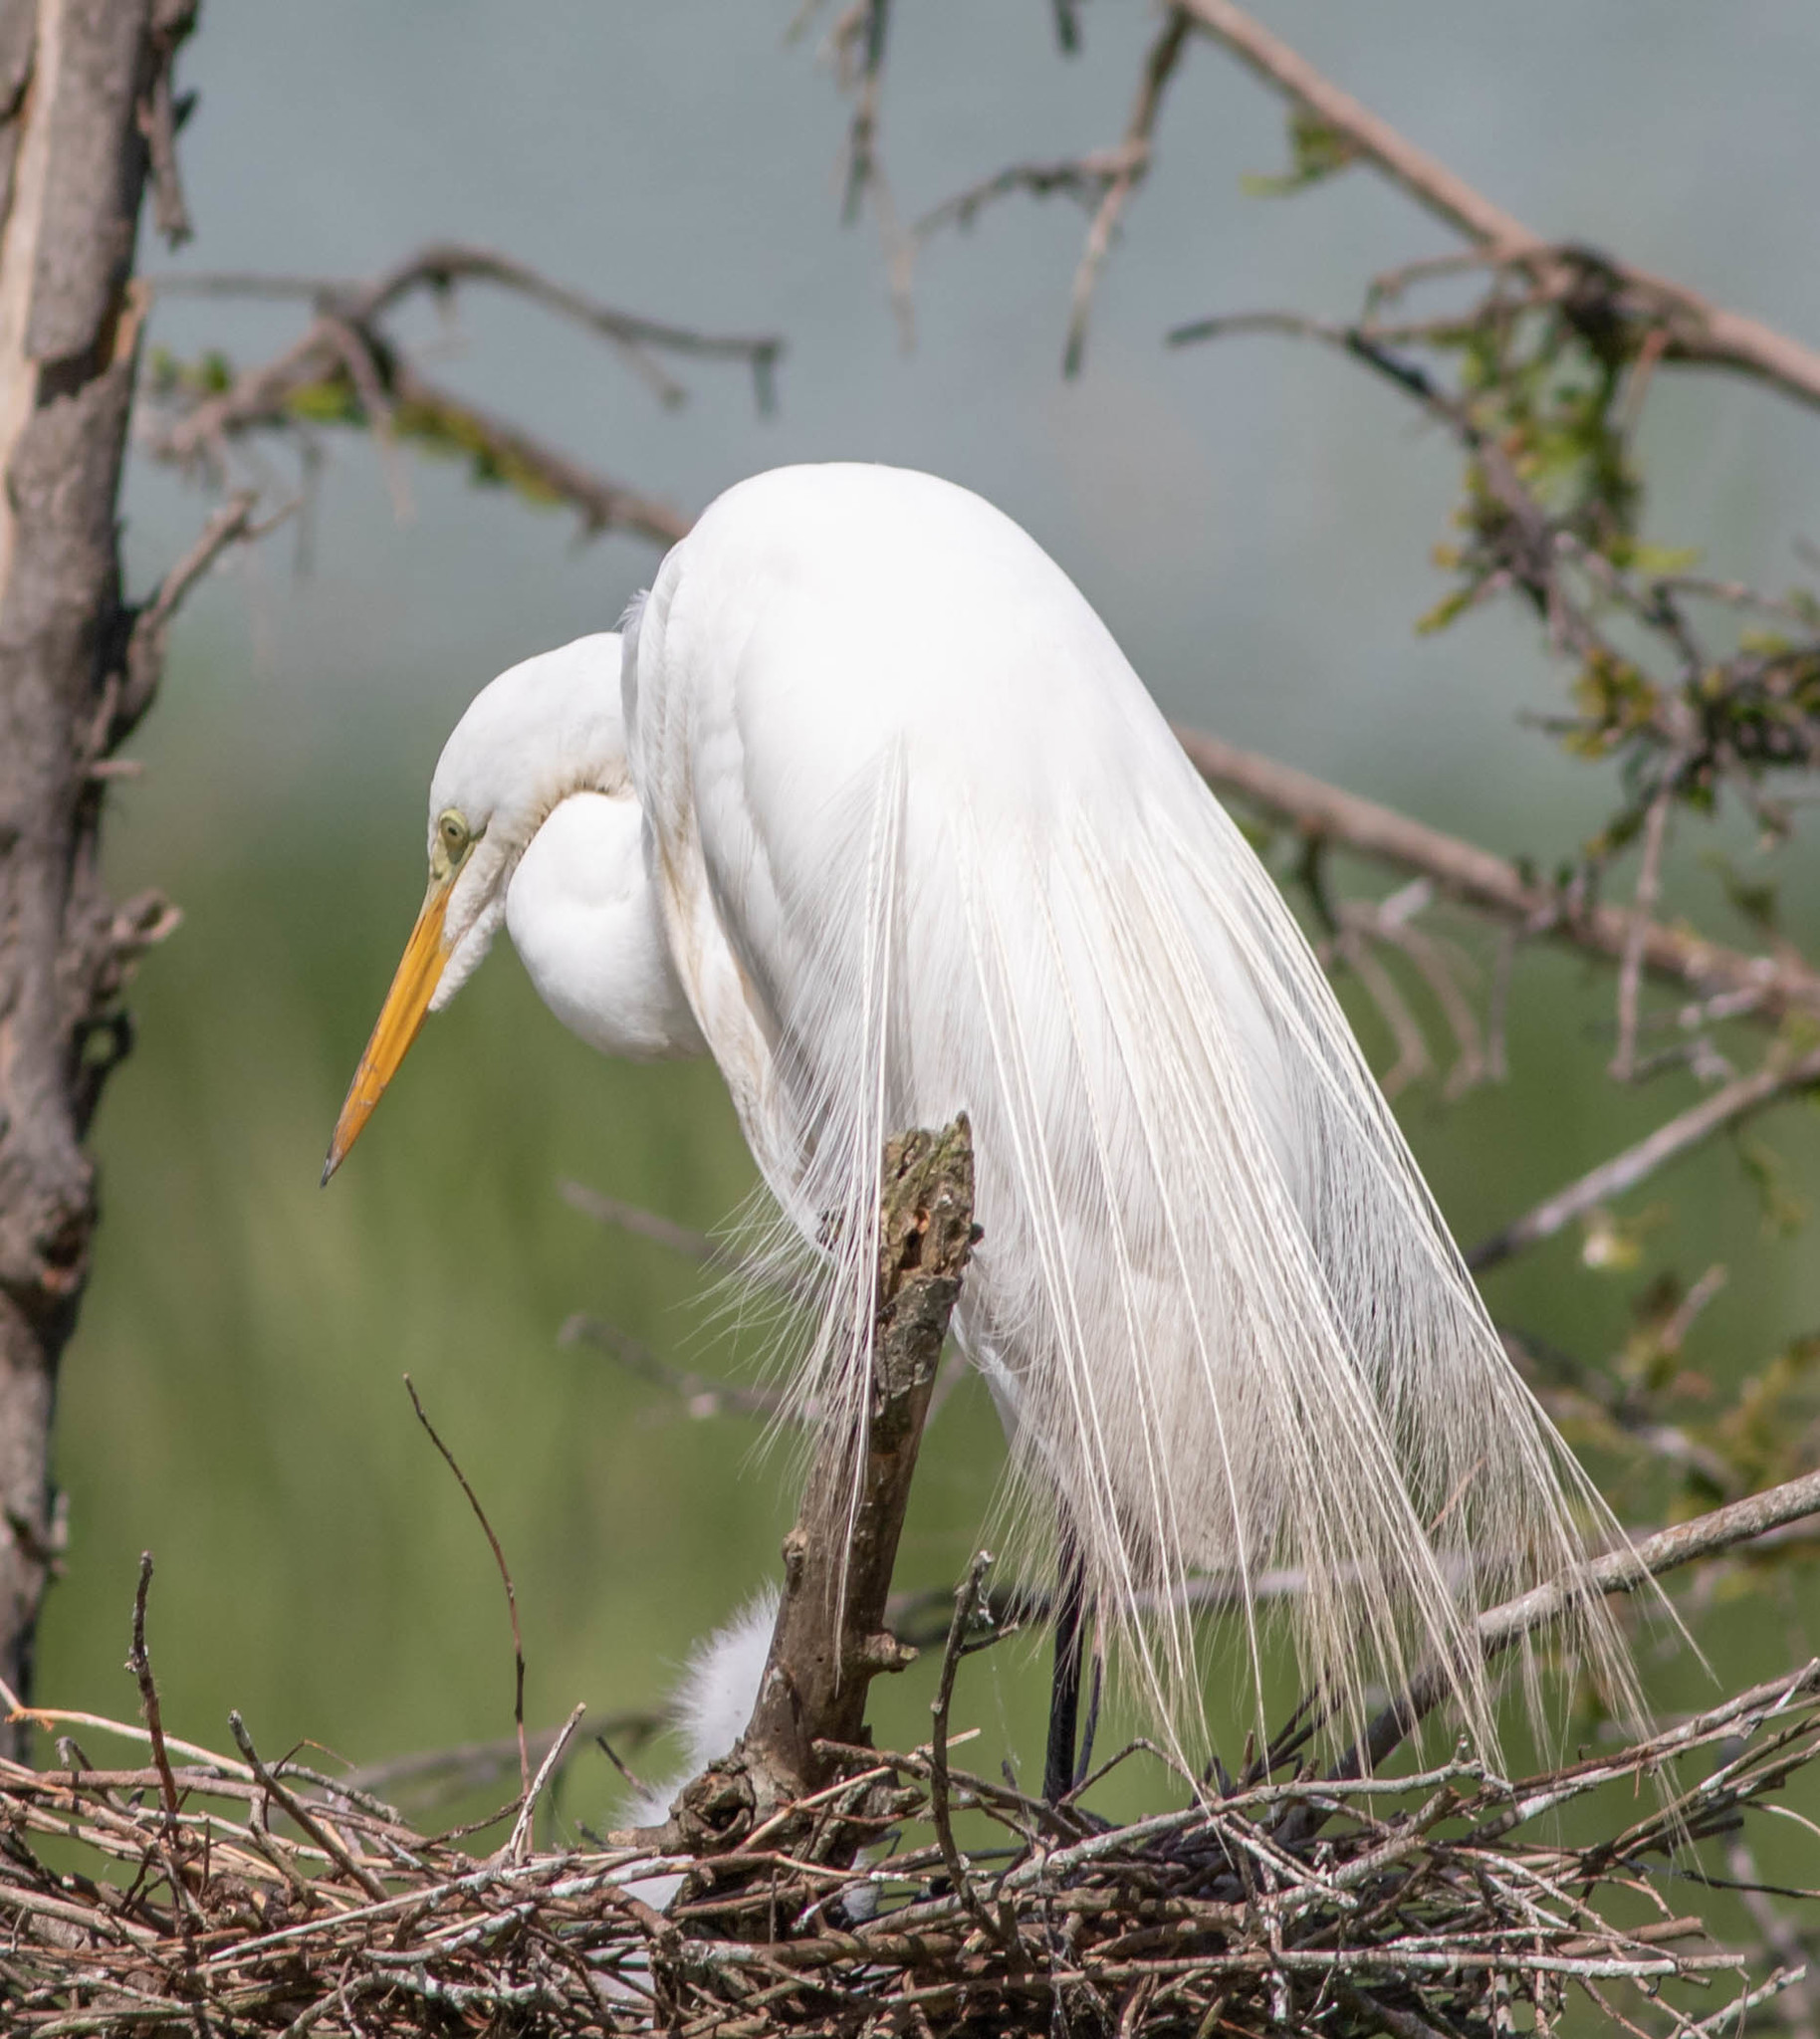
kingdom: Animalia
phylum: Chordata
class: Aves
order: Pelecaniformes
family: Ardeidae
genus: Ardea
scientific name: Ardea alba
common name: Great egret
